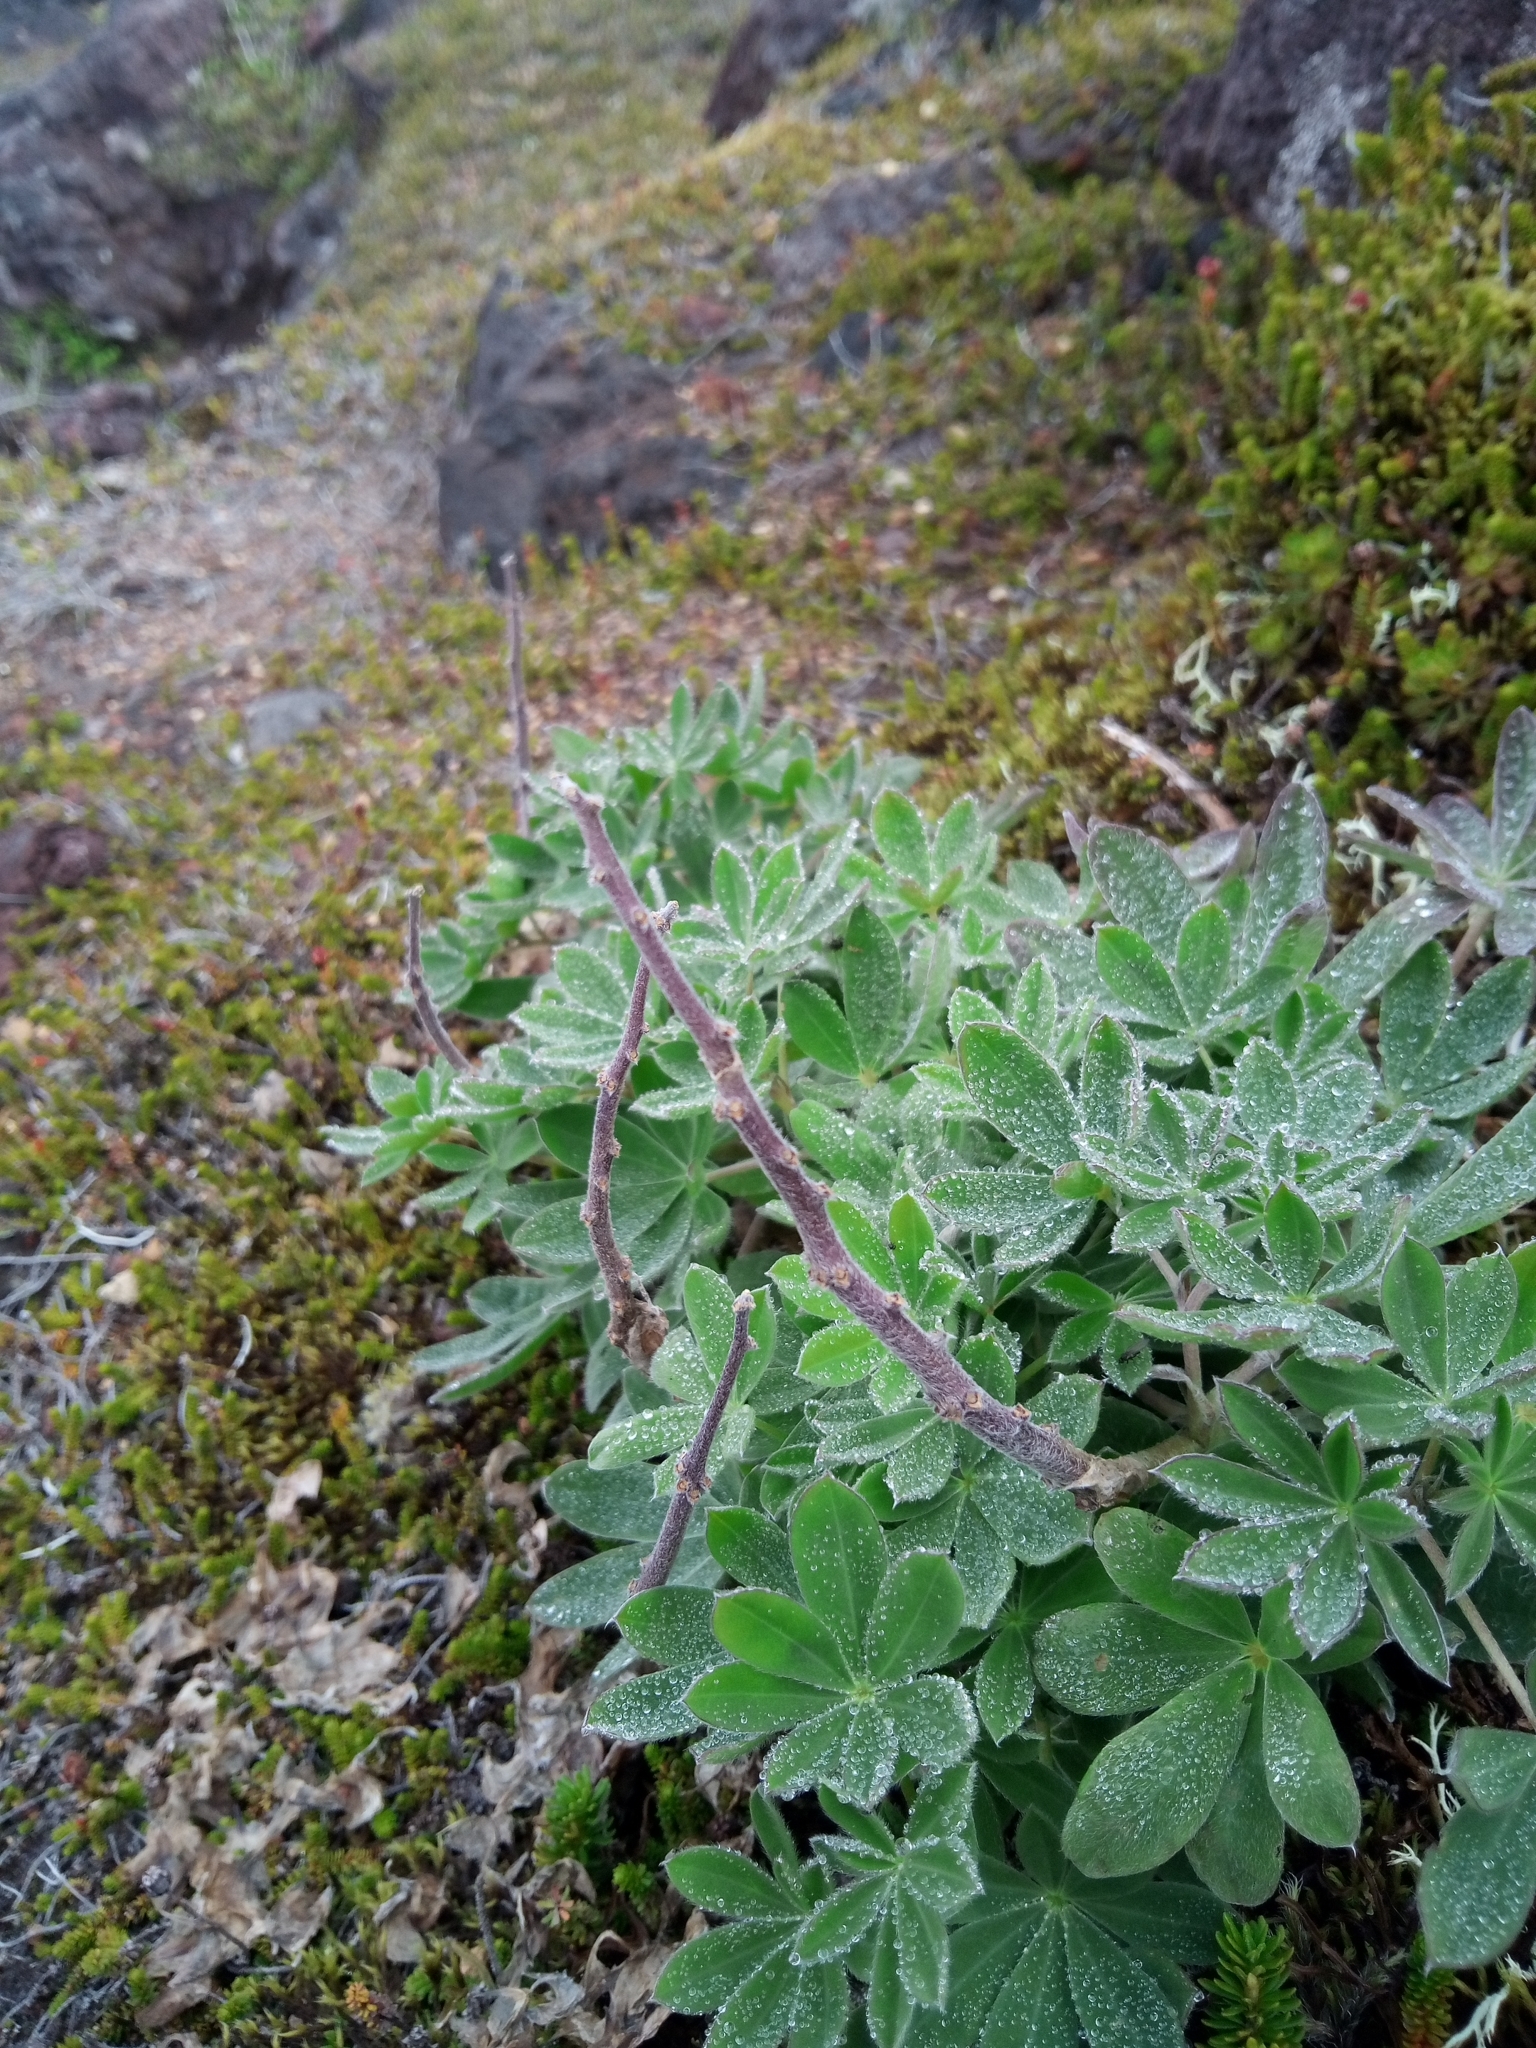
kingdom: Plantae
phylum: Tracheophyta
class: Magnoliopsida
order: Fabales
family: Fabaceae
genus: Lupinus
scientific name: Lupinus nootkatensis
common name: Nootka lupine
